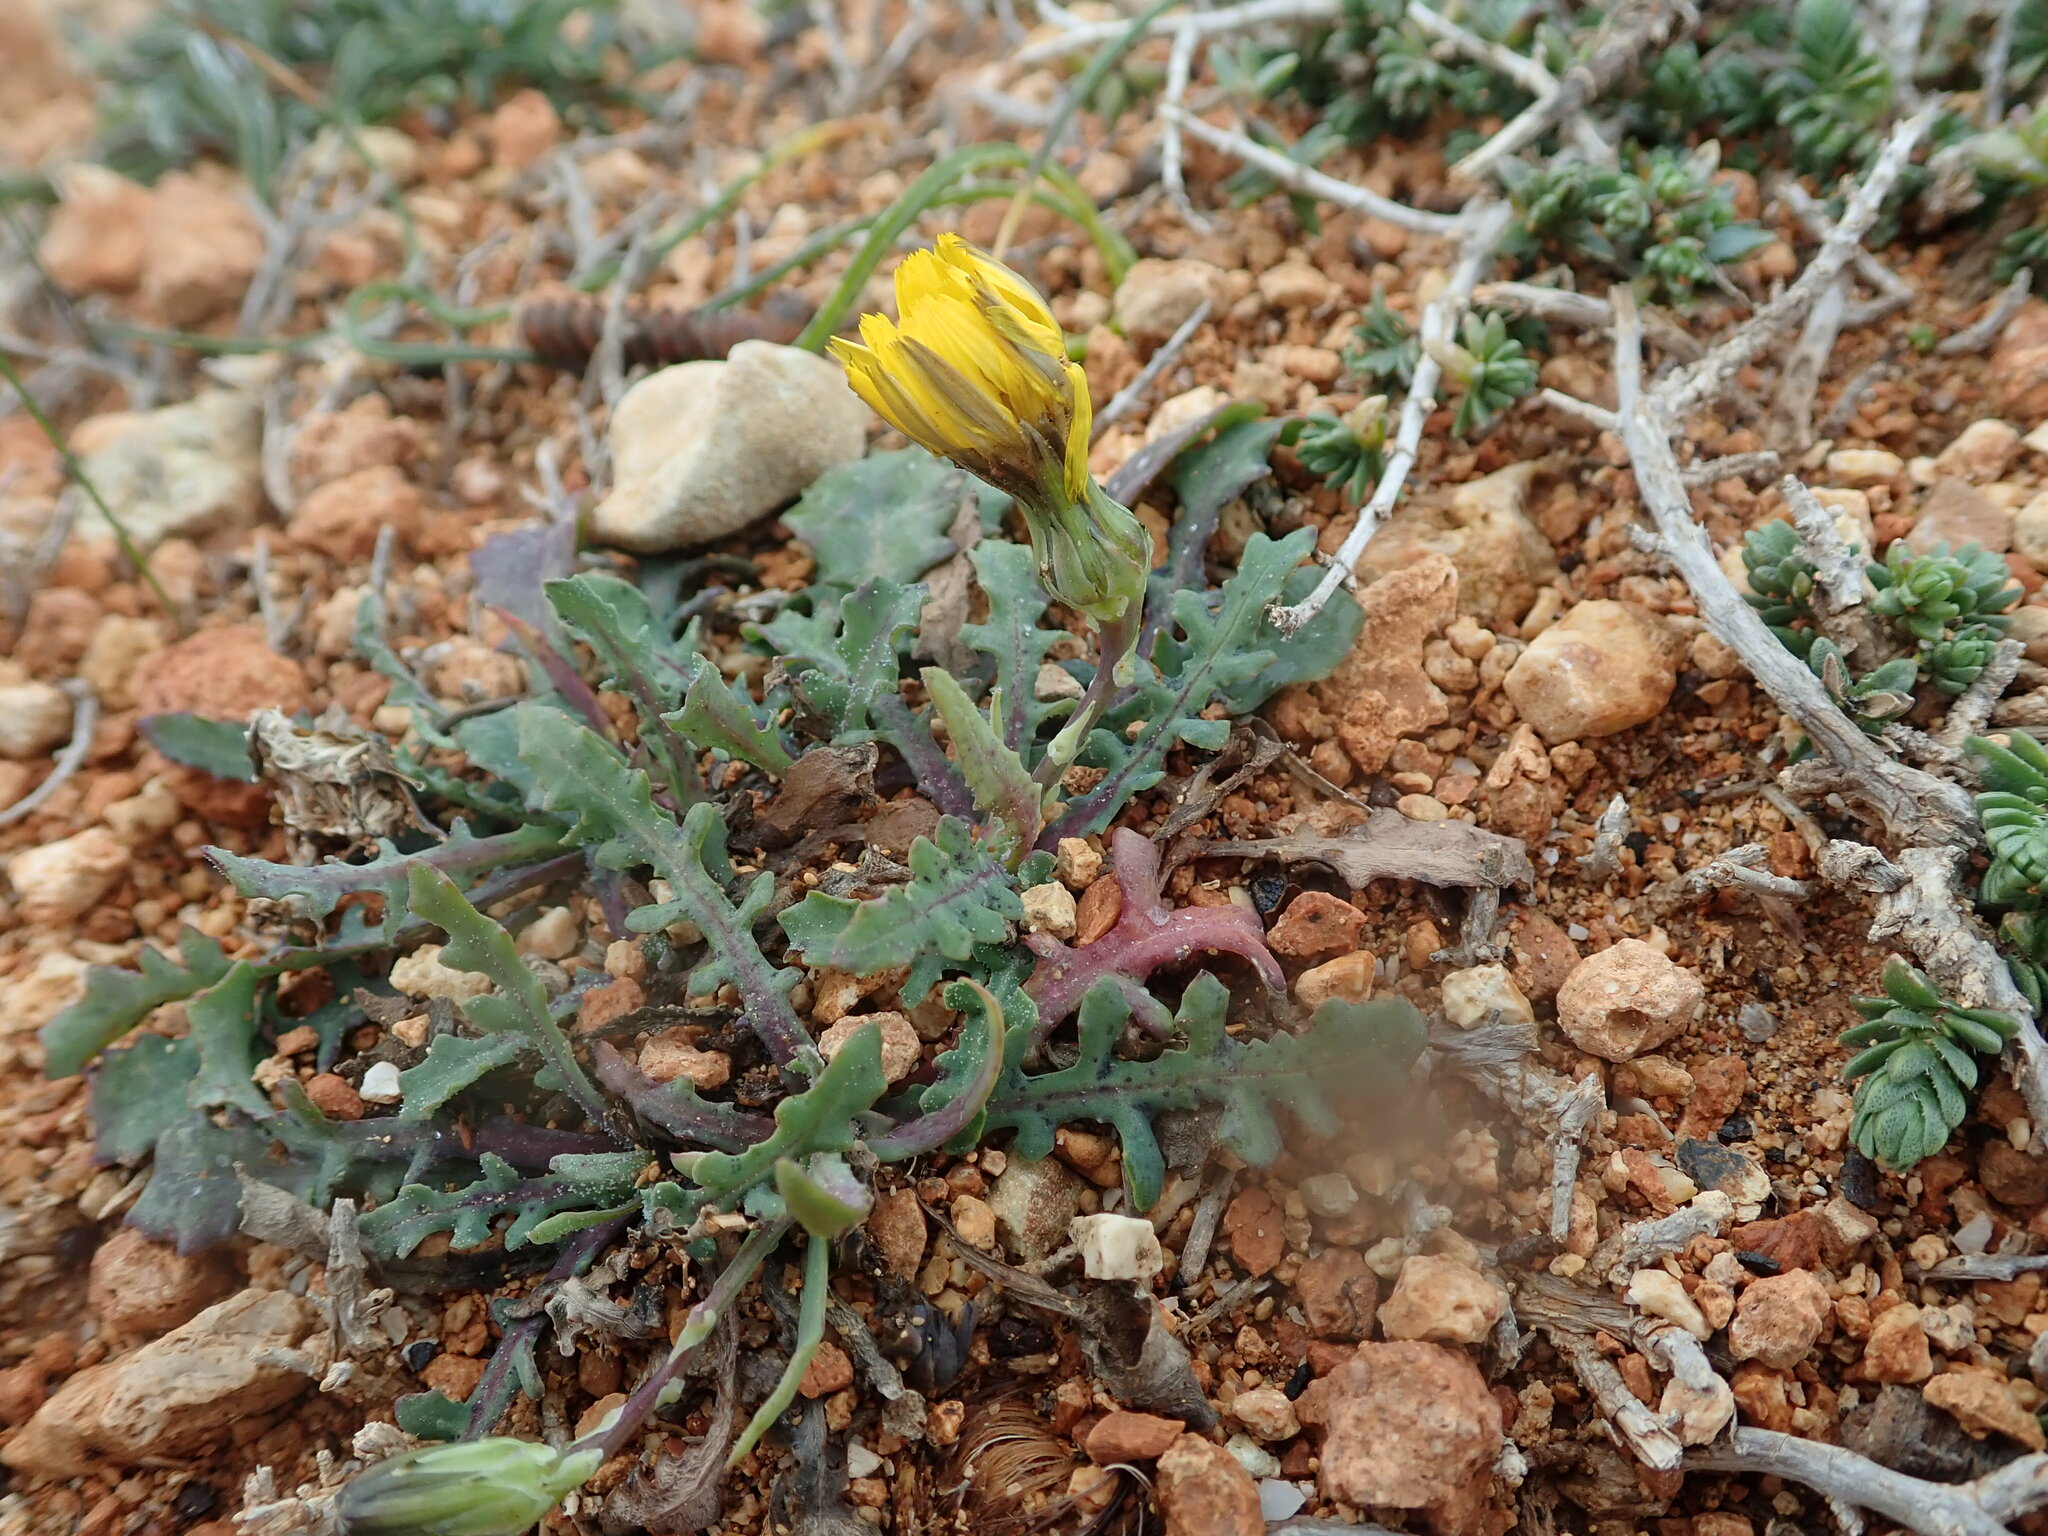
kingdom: Plantae
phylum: Tracheophyta
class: Magnoliopsida
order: Asterales
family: Asteraceae
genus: Reichardia
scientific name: Reichardia picroides
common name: Common brighteyes
